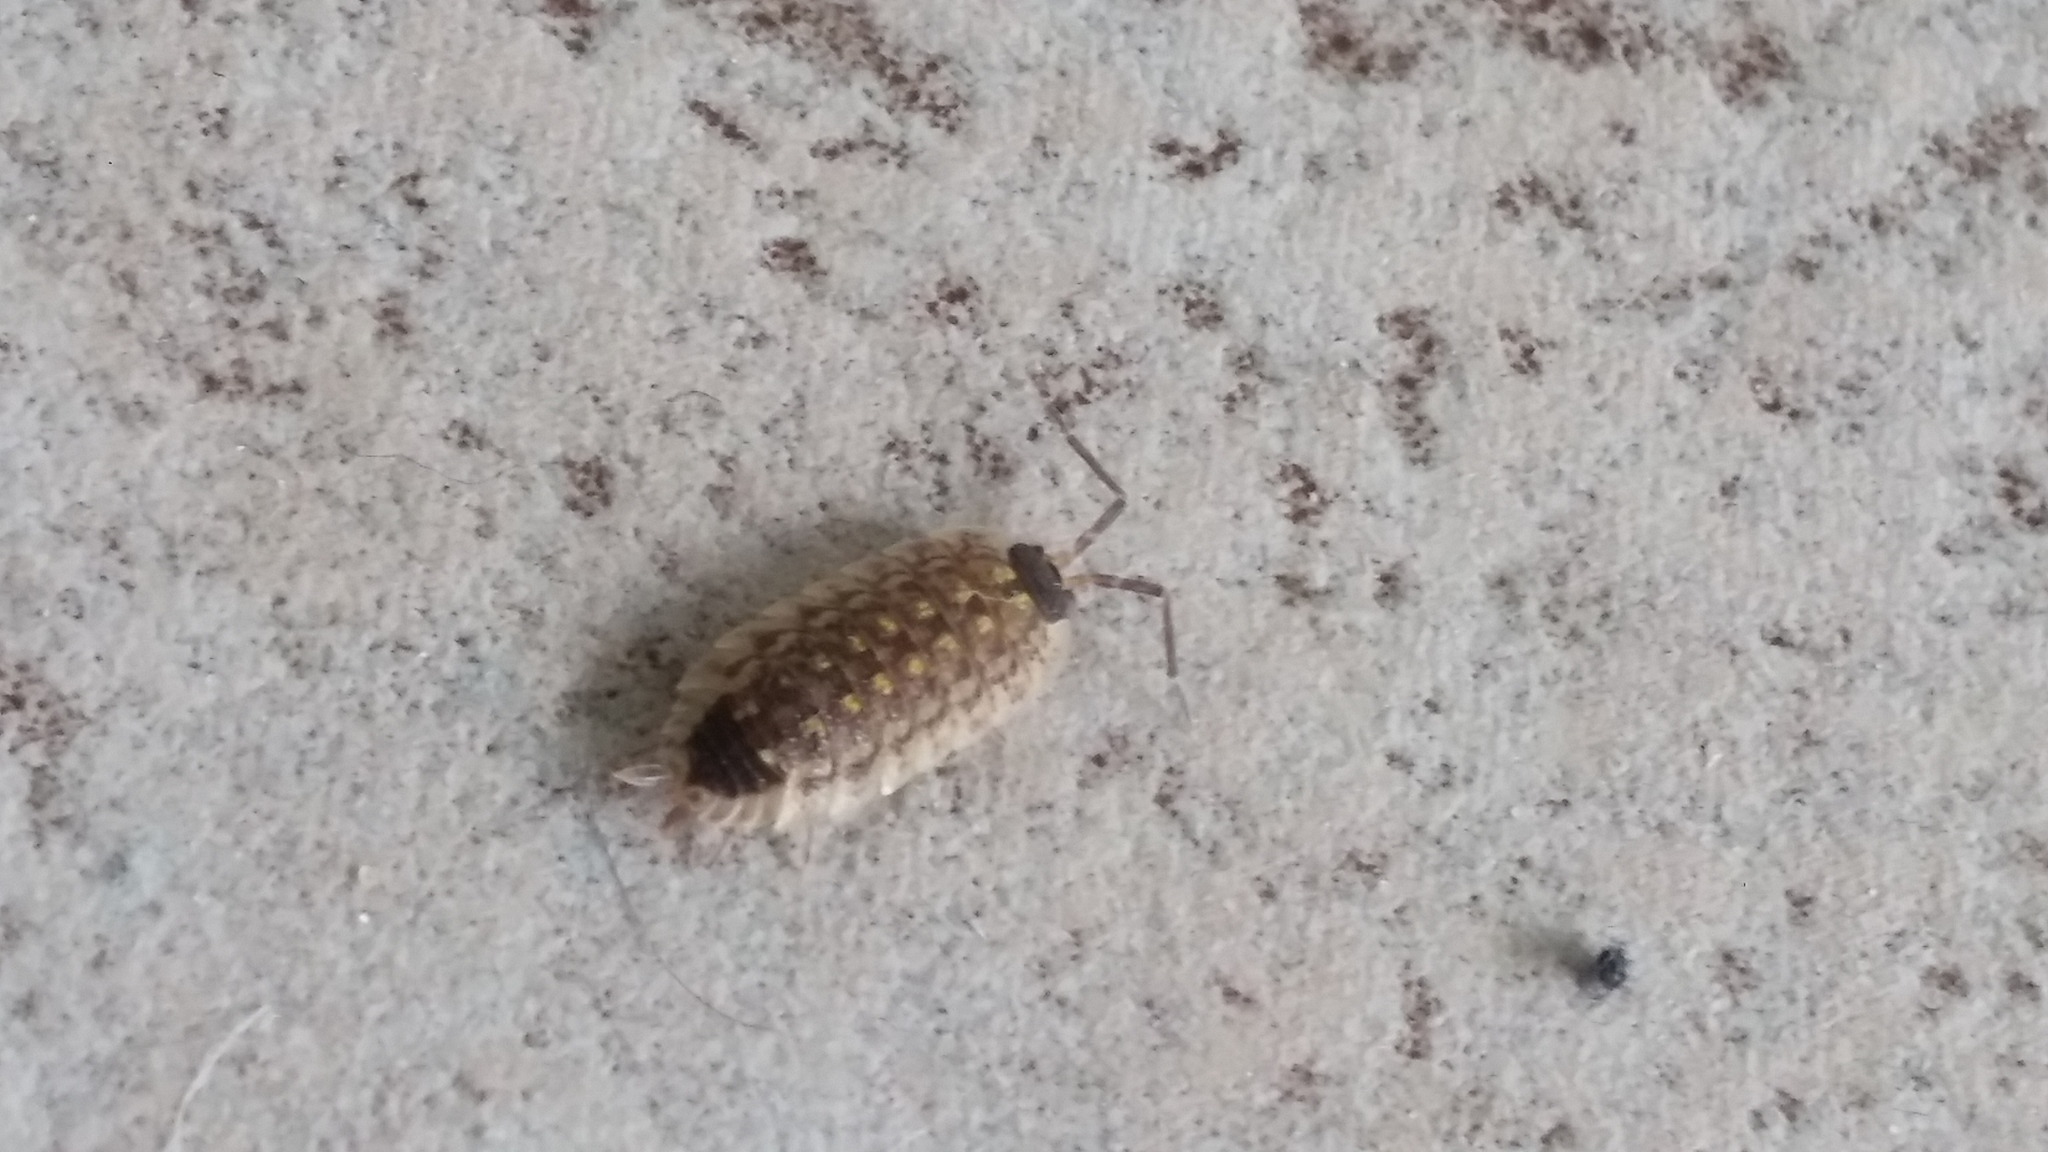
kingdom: Animalia
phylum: Arthropoda
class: Malacostraca
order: Isopoda
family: Porcellionidae
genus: Porcellio
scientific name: Porcellio spinicornis
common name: Painted woodlouse
